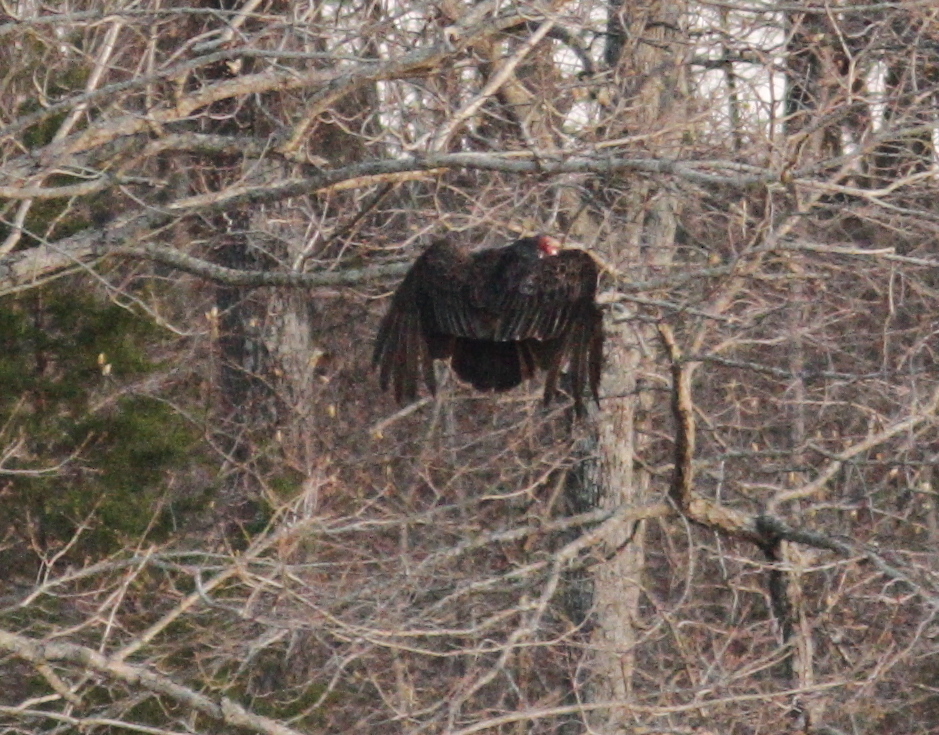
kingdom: Animalia
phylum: Chordata
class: Aves
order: Accipitriformes
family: Cathartidae
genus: Cathartes
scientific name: Cathartes aura
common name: Turkey vulture
